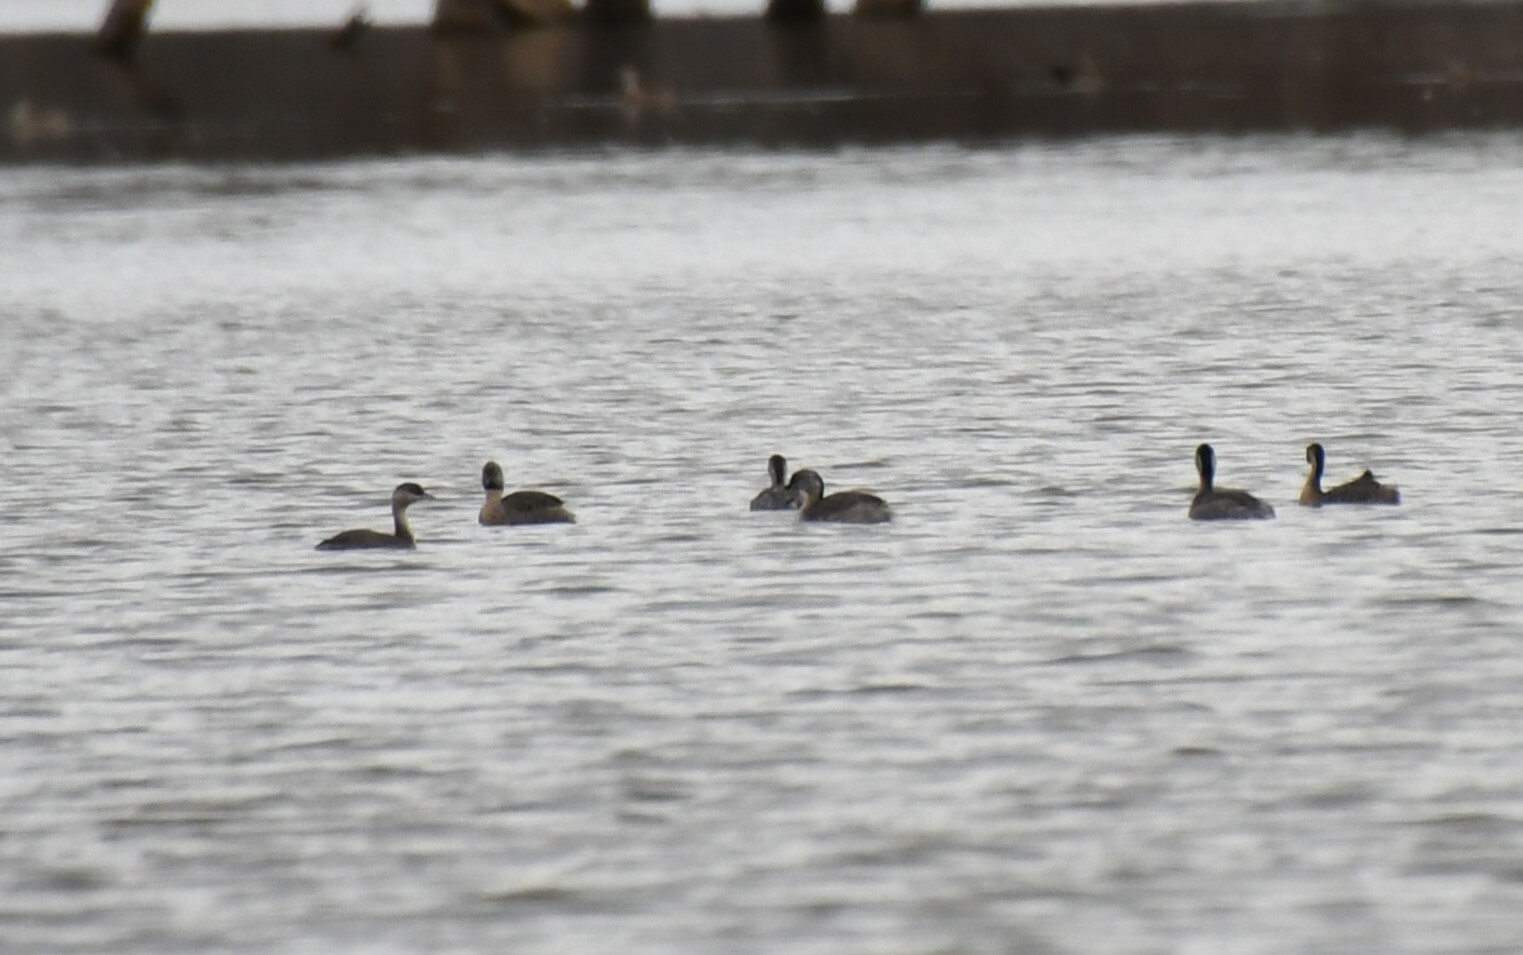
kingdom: Animalia
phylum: Chordata
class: Aves
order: Podicipediformes
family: Podicipedidae
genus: Poliocephalus
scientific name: Poliocephalus poliocephalus
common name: Hoary-headed grebe
